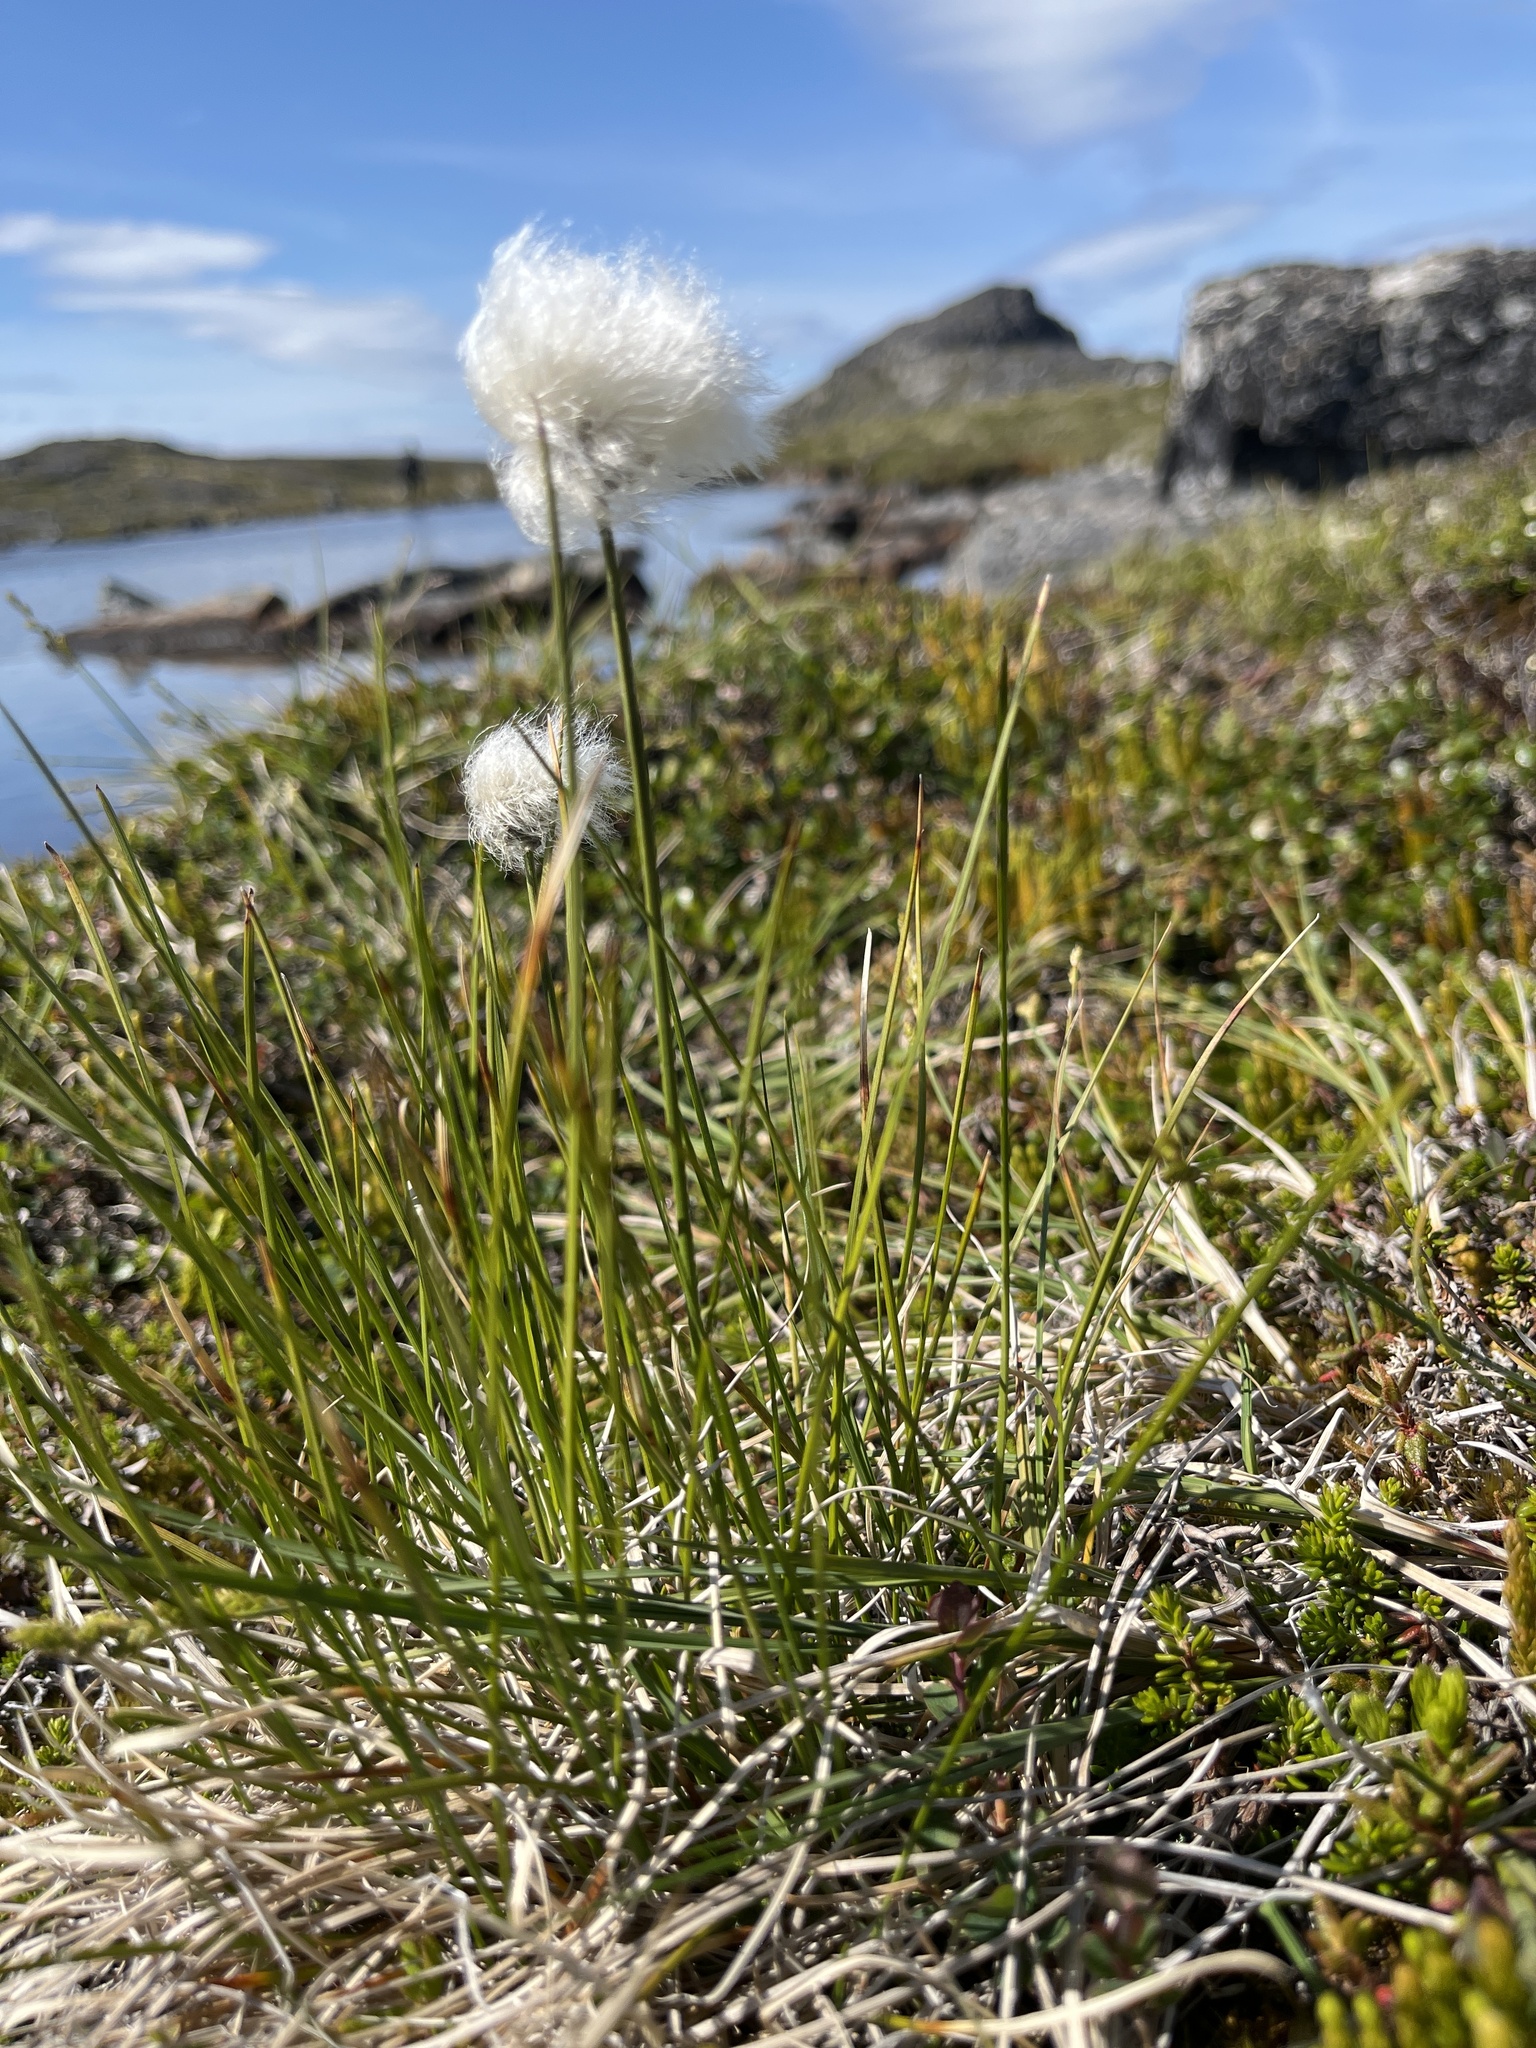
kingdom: Plantae
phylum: Tracheophyta
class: Liliopsida
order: Poales
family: Cyperaceae
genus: Eriophorum
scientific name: Eriophorum vaginatum
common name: Hare's-tail cottongrass
